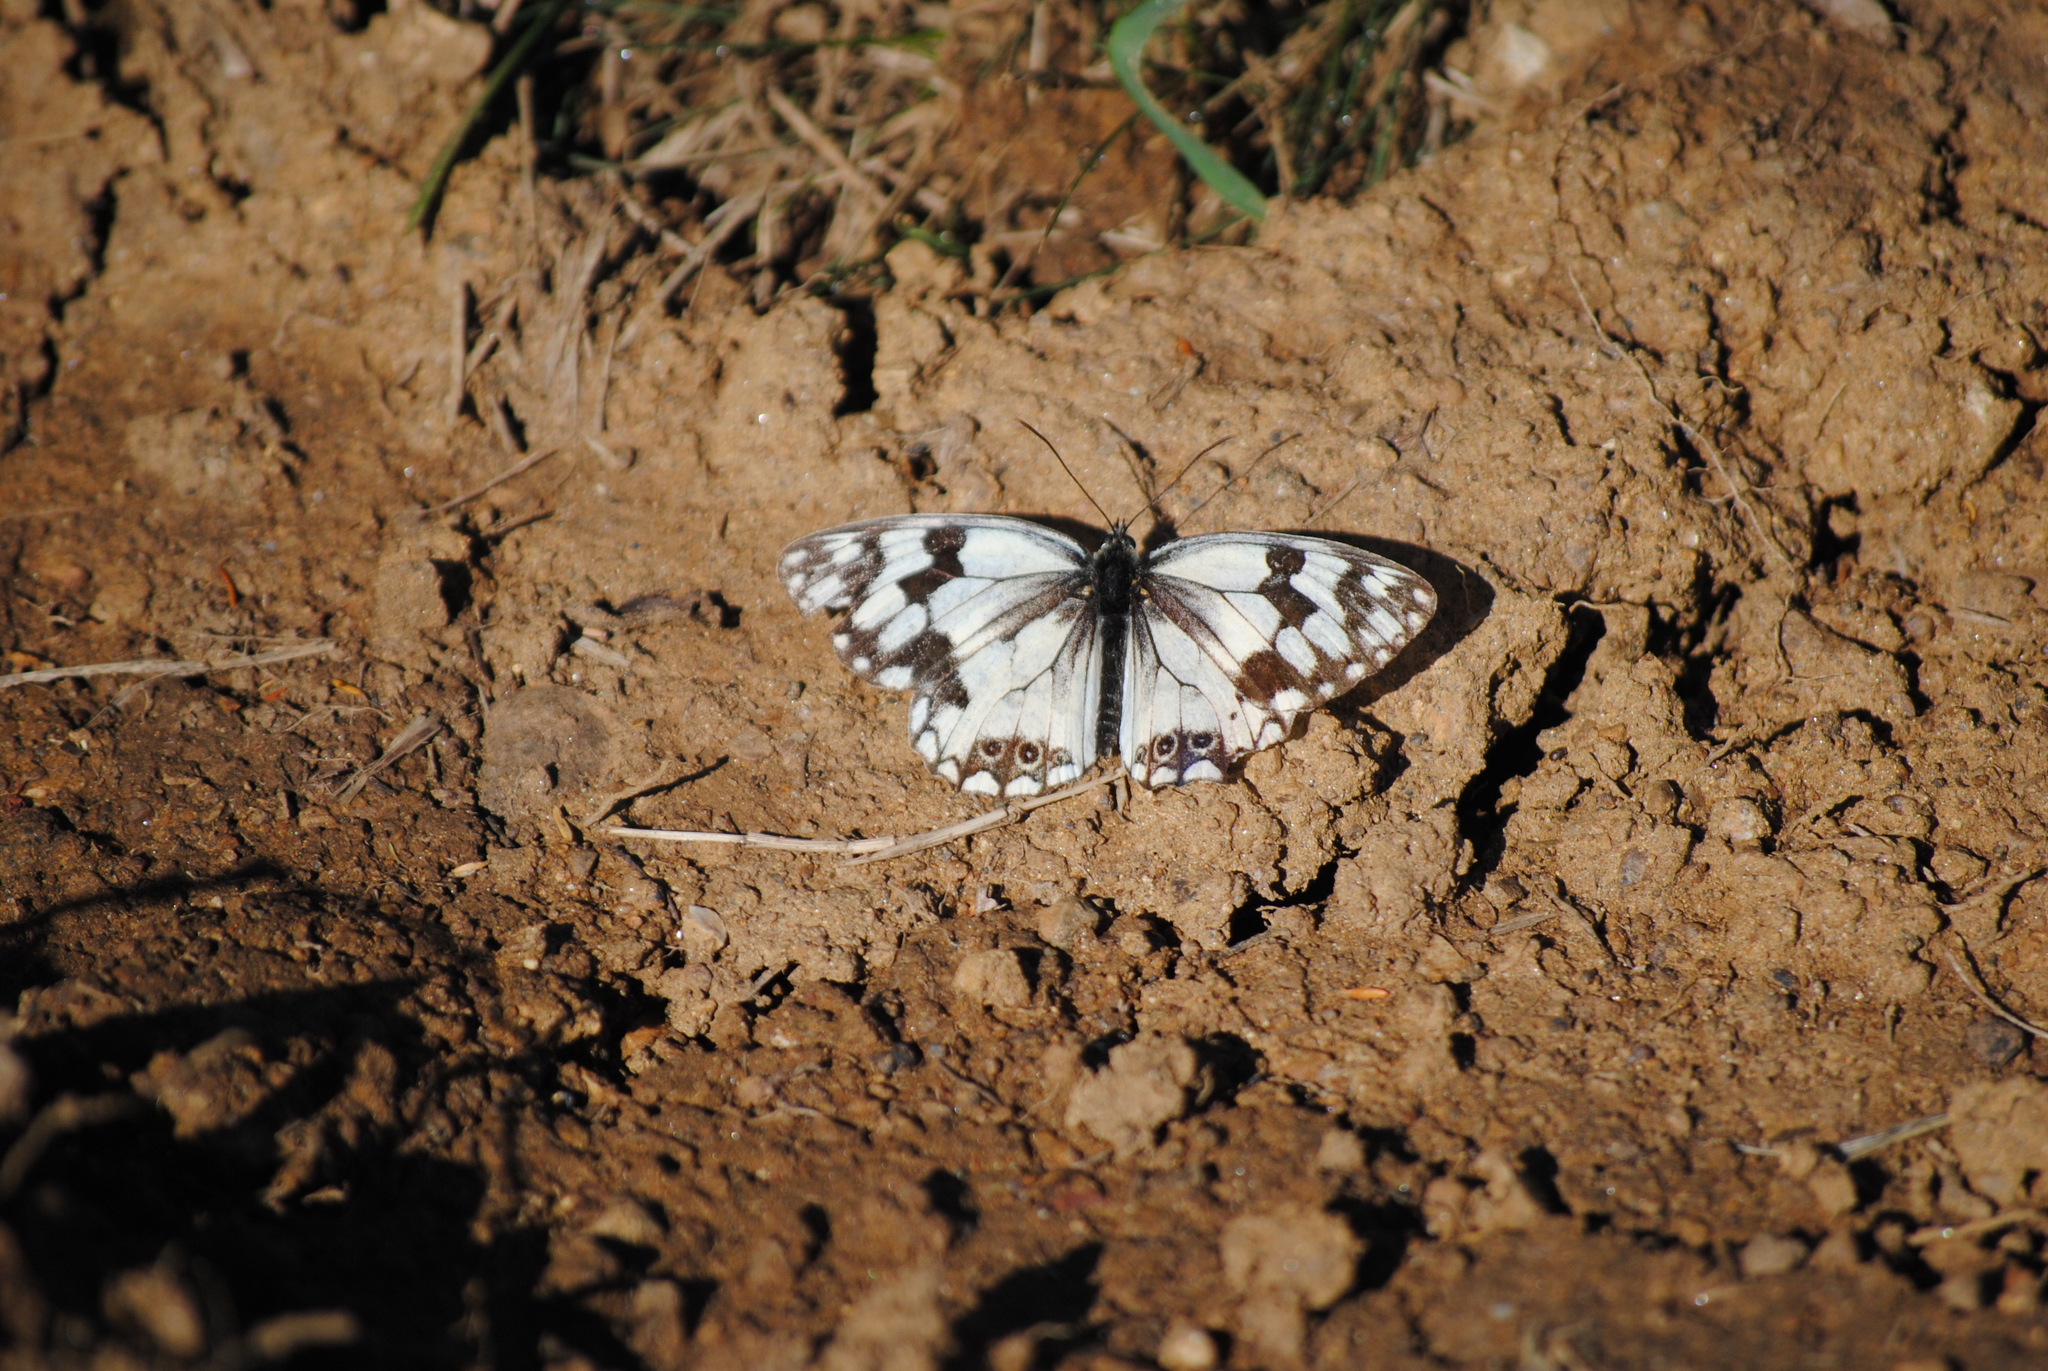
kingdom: Animalia
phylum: Arthropoda
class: Insecta
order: Lepidoptera
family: Nymphalidae
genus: Melanargia
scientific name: Melanargia lachesis
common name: Iberian marbled white
